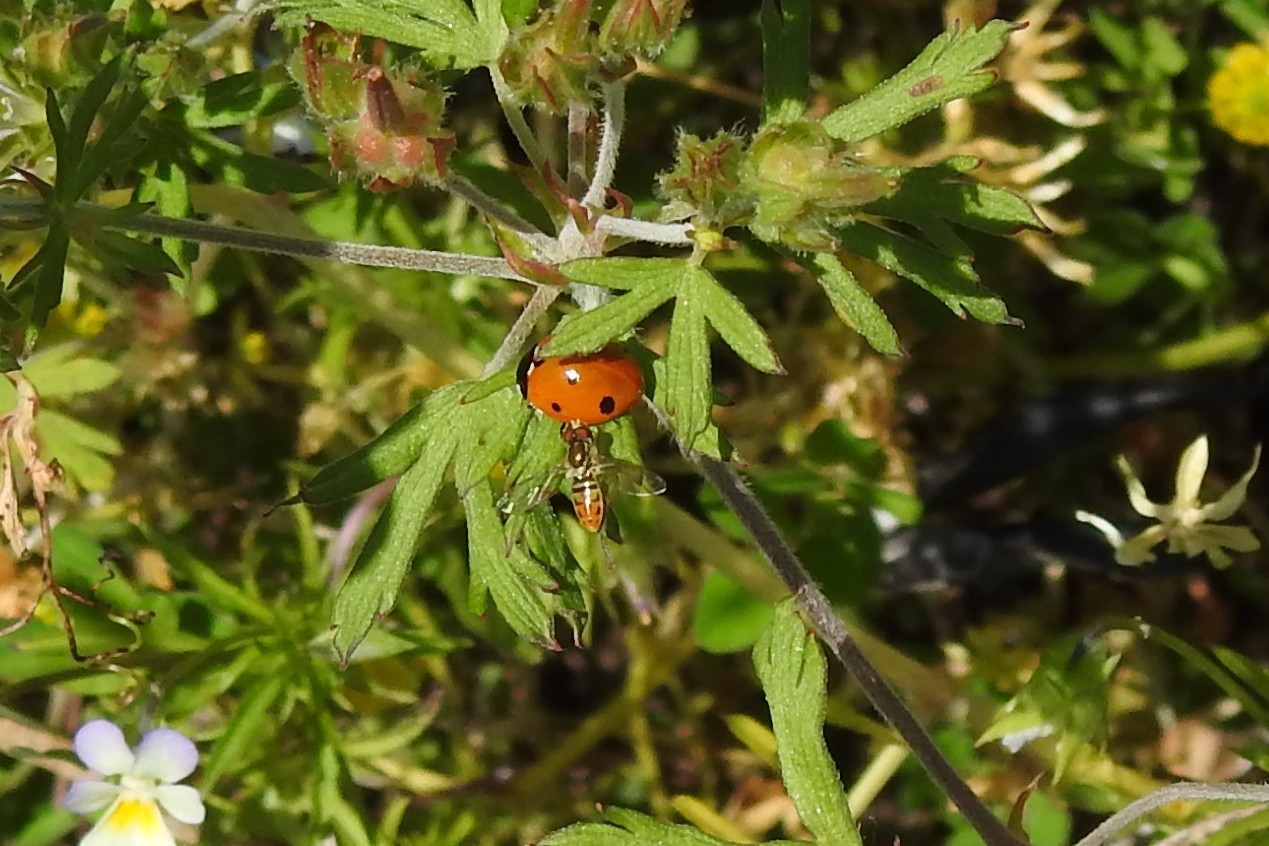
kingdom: Animalia
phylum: Arthropoda
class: Insecta
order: Diptera
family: Syrphidae
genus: Toxomerus
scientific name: Toxomerus marginatus
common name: Syrphid fly
